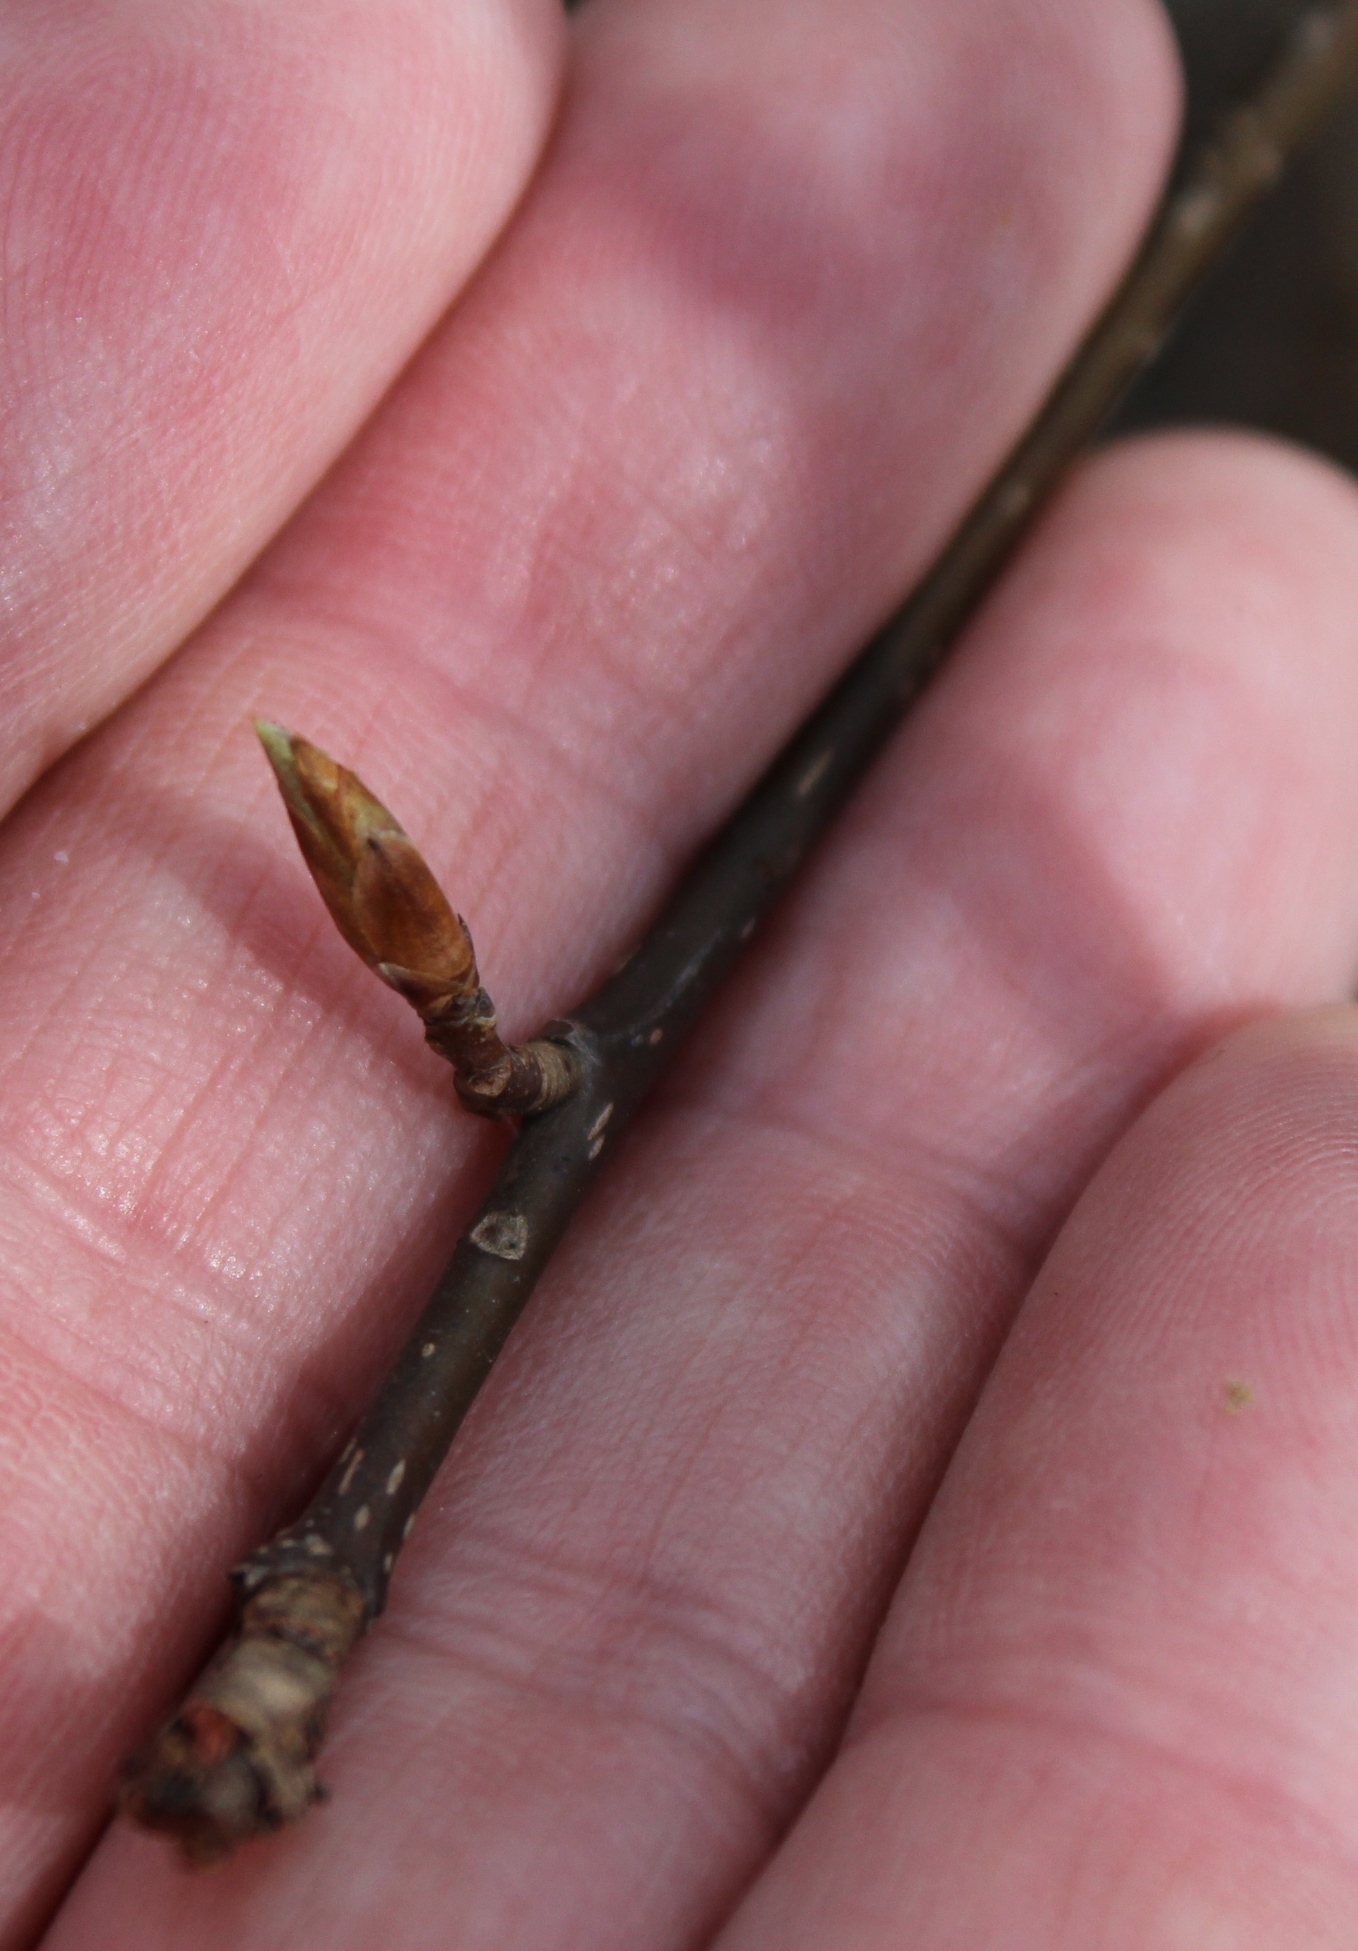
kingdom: Plantae
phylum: Tracheophyta
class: Magnoliopsida
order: Rosales
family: Rosaceae
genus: Prunus
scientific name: Prunus padus
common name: Bird cherry
